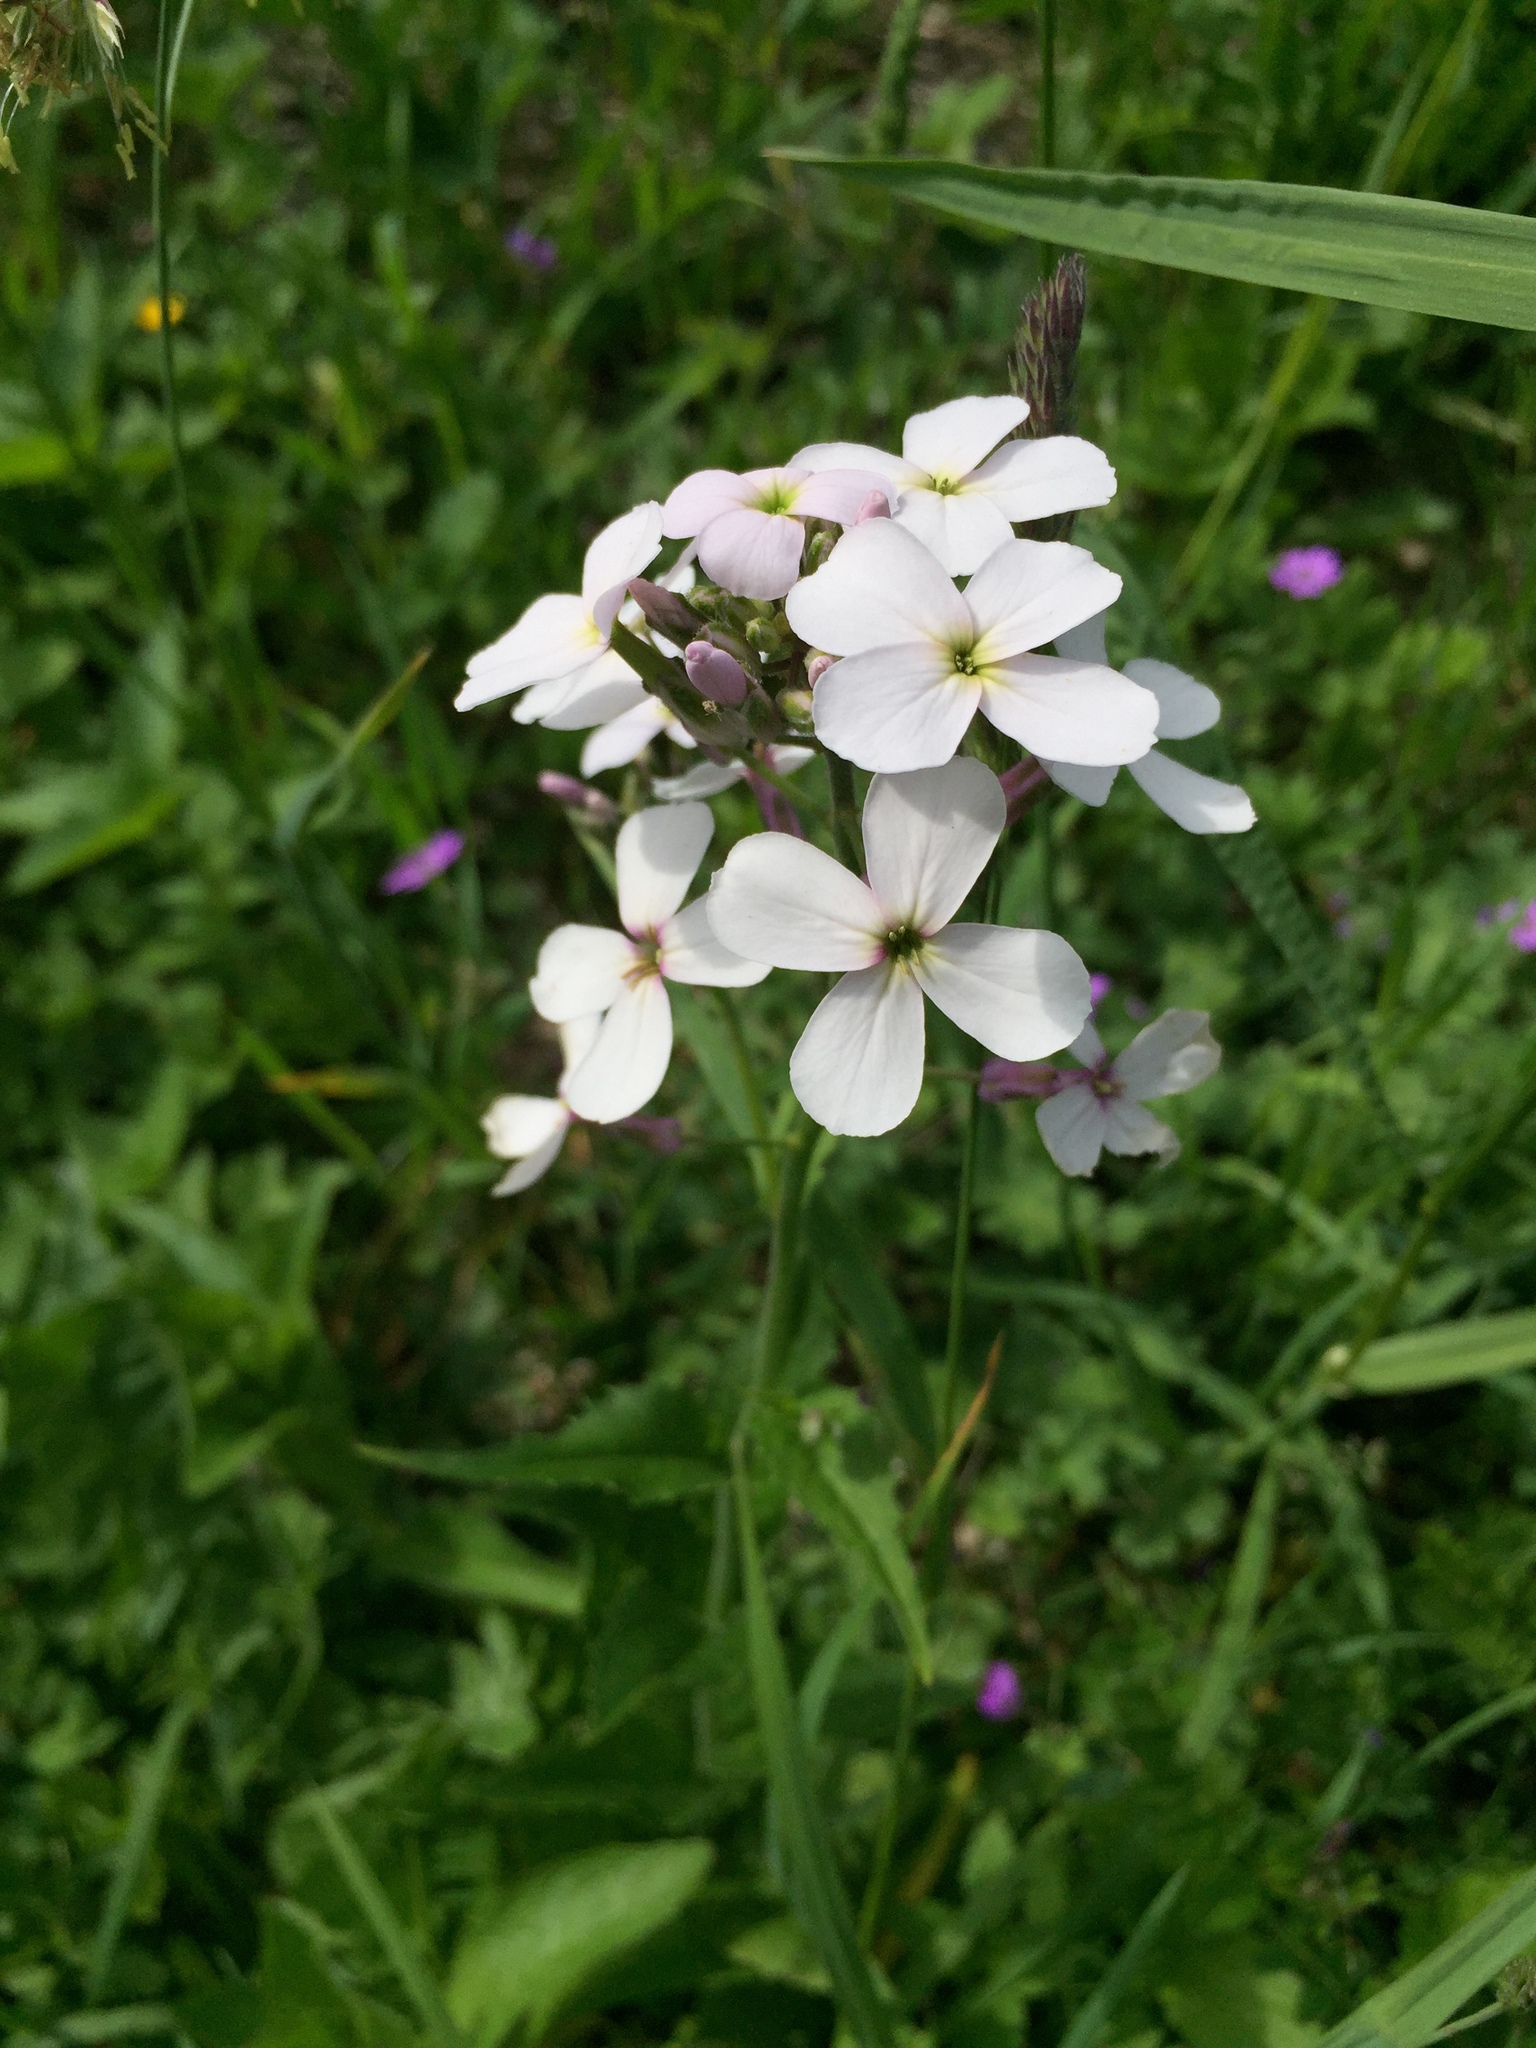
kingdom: Plantae
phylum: Tracheophyta
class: Magnoliopsida
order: Brassicales
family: Brassicaceae
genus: Hesperis
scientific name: Hesperis matronalis
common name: Dame's-violet
